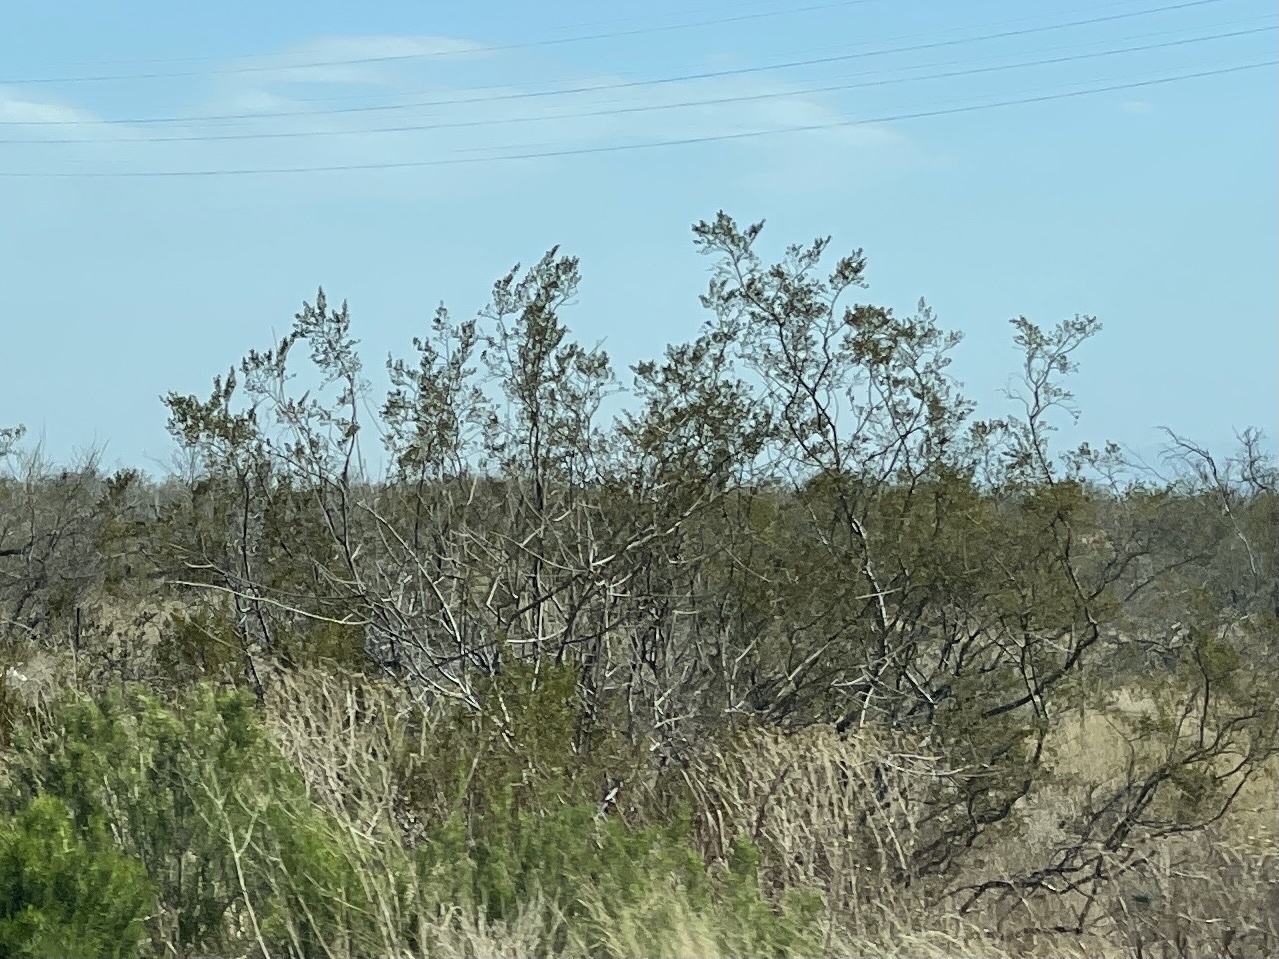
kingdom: Plantae
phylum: Tracheophyta
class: Magnoliopsida
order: Zygophyllales
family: Zygophyllaceae
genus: Larrea
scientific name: Larrea tridentata
